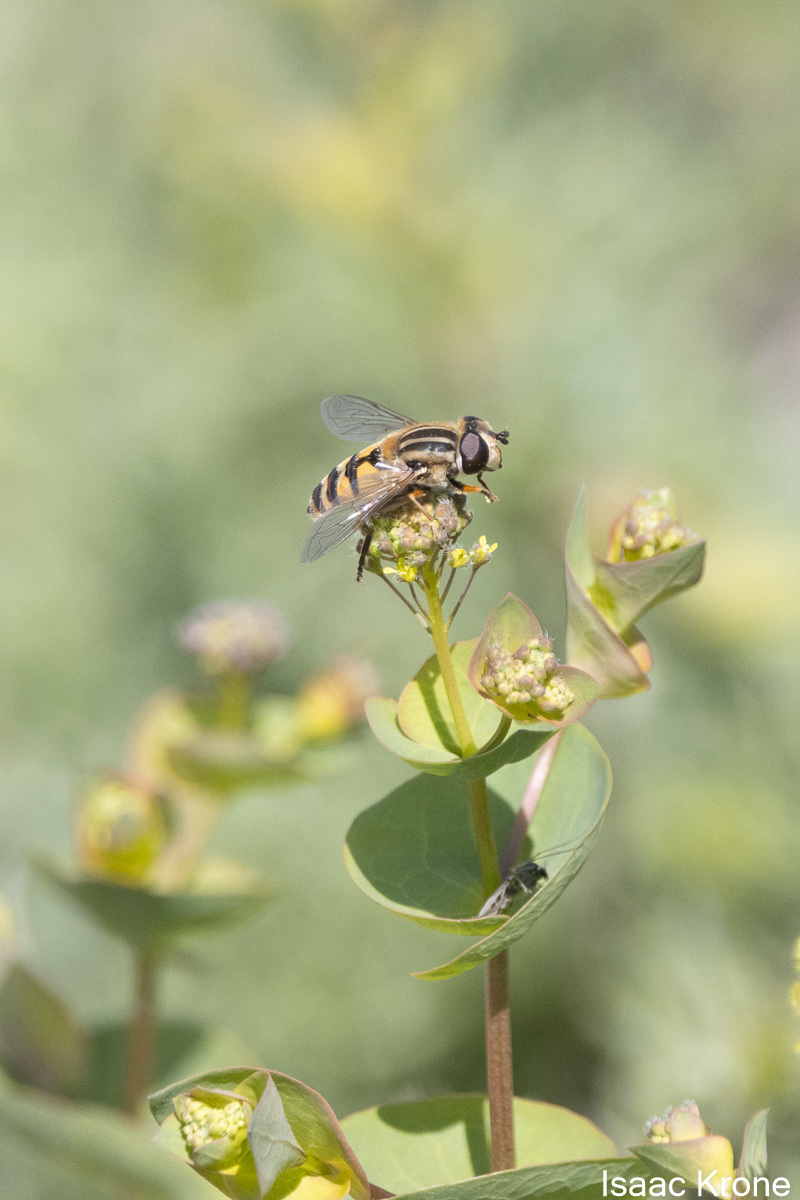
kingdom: Animalia
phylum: Arthropoda
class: Insecta
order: Diptera
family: Syrphidae
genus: Helophilus
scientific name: Helophilus latifrons
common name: Broad-headed marsh fly
